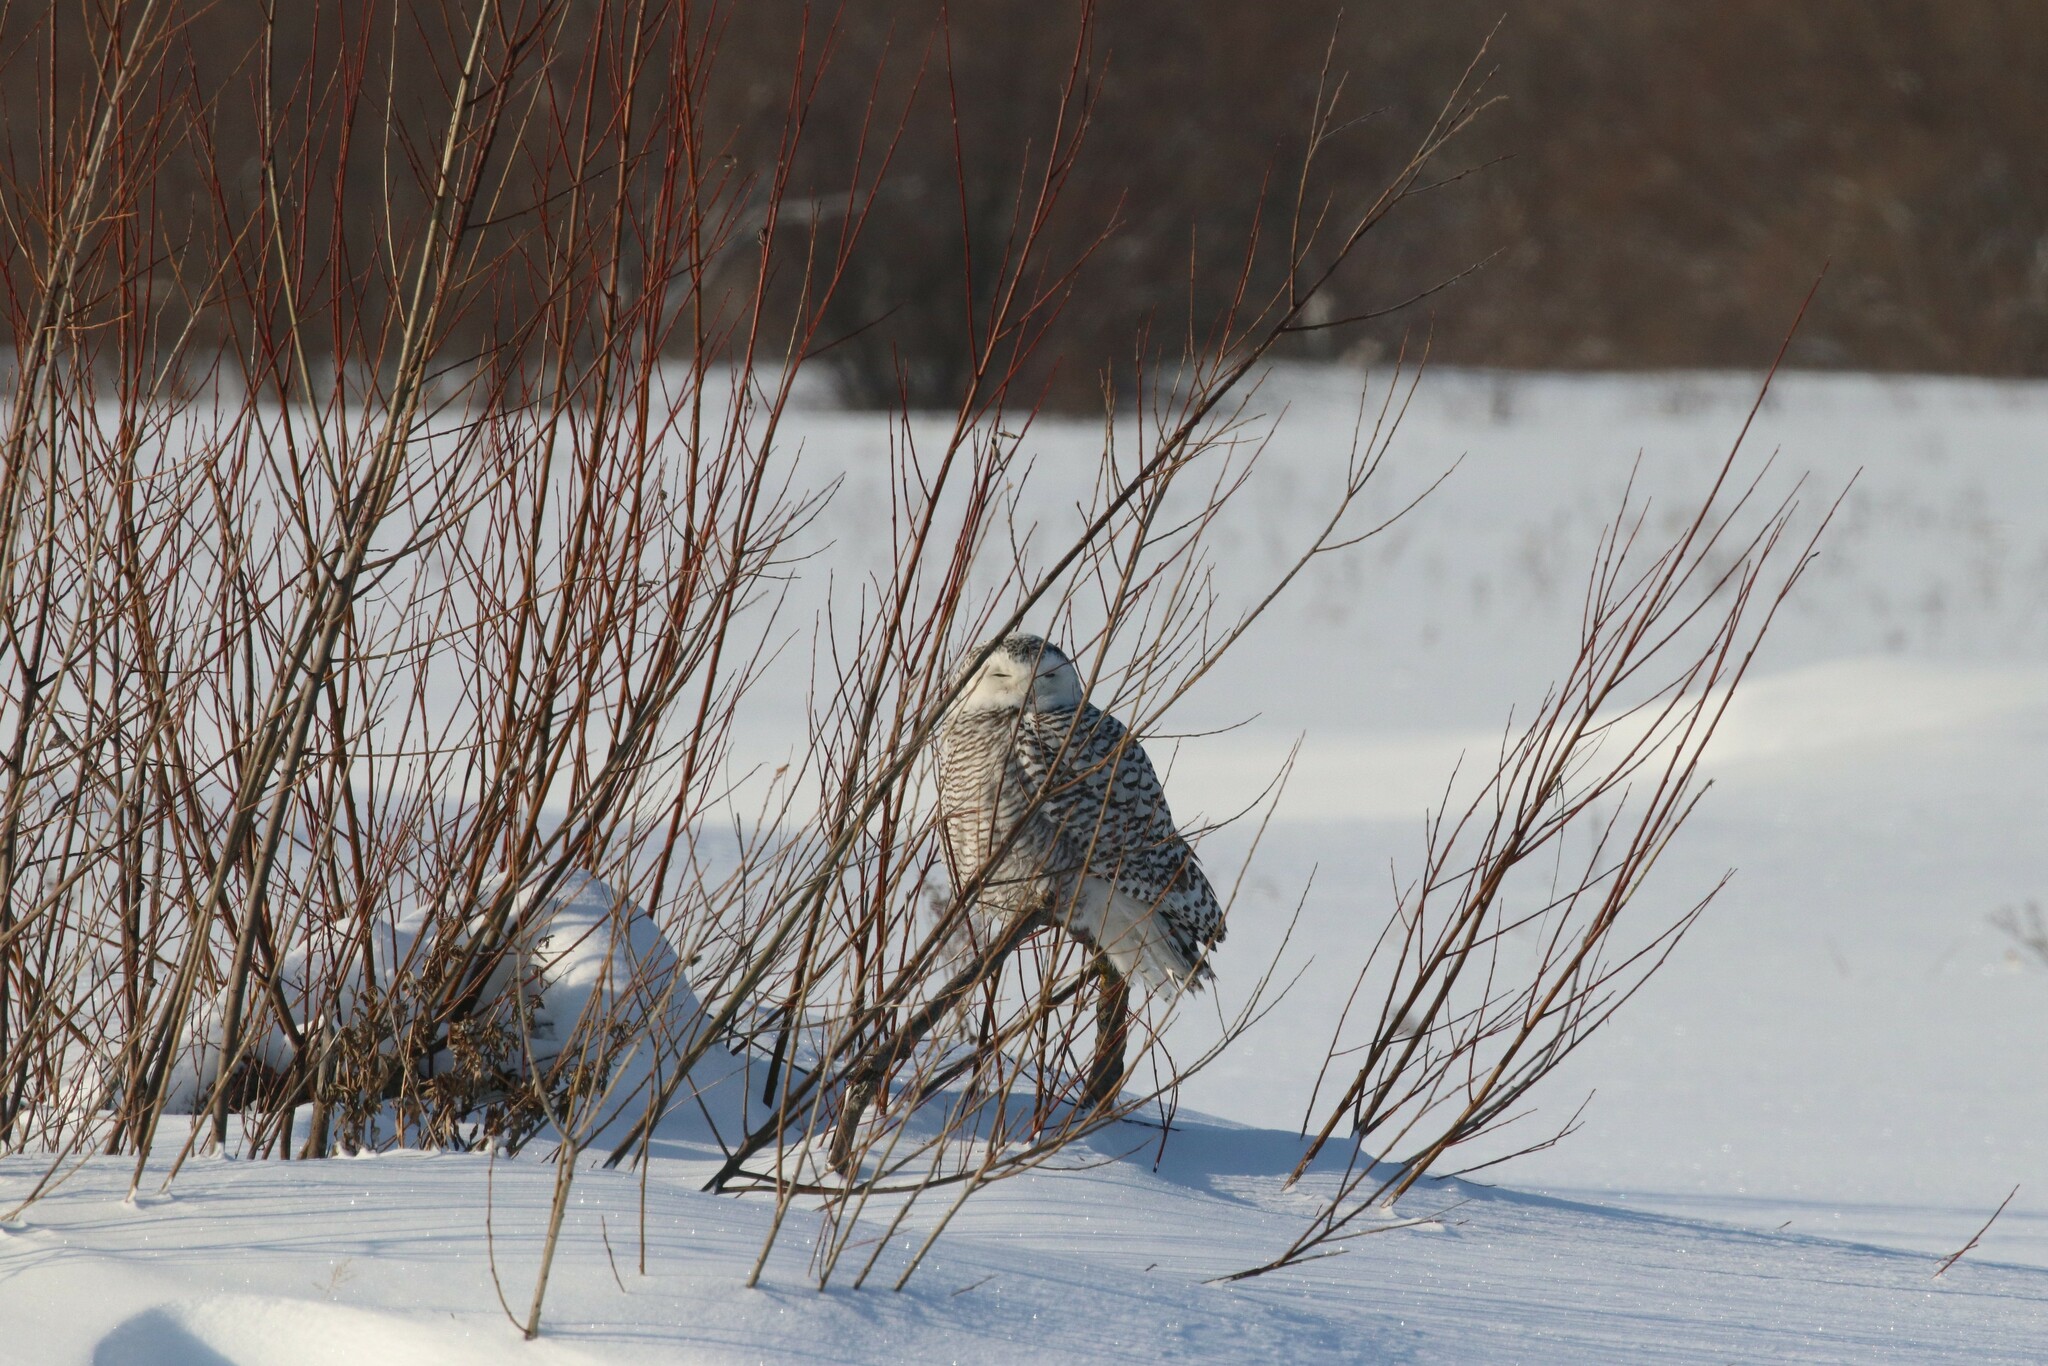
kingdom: Animalia
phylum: Chordata
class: Aves
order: Strigiformes
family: Strigidae
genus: Bubo
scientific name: Bubo scandiacus
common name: Snowy owl
